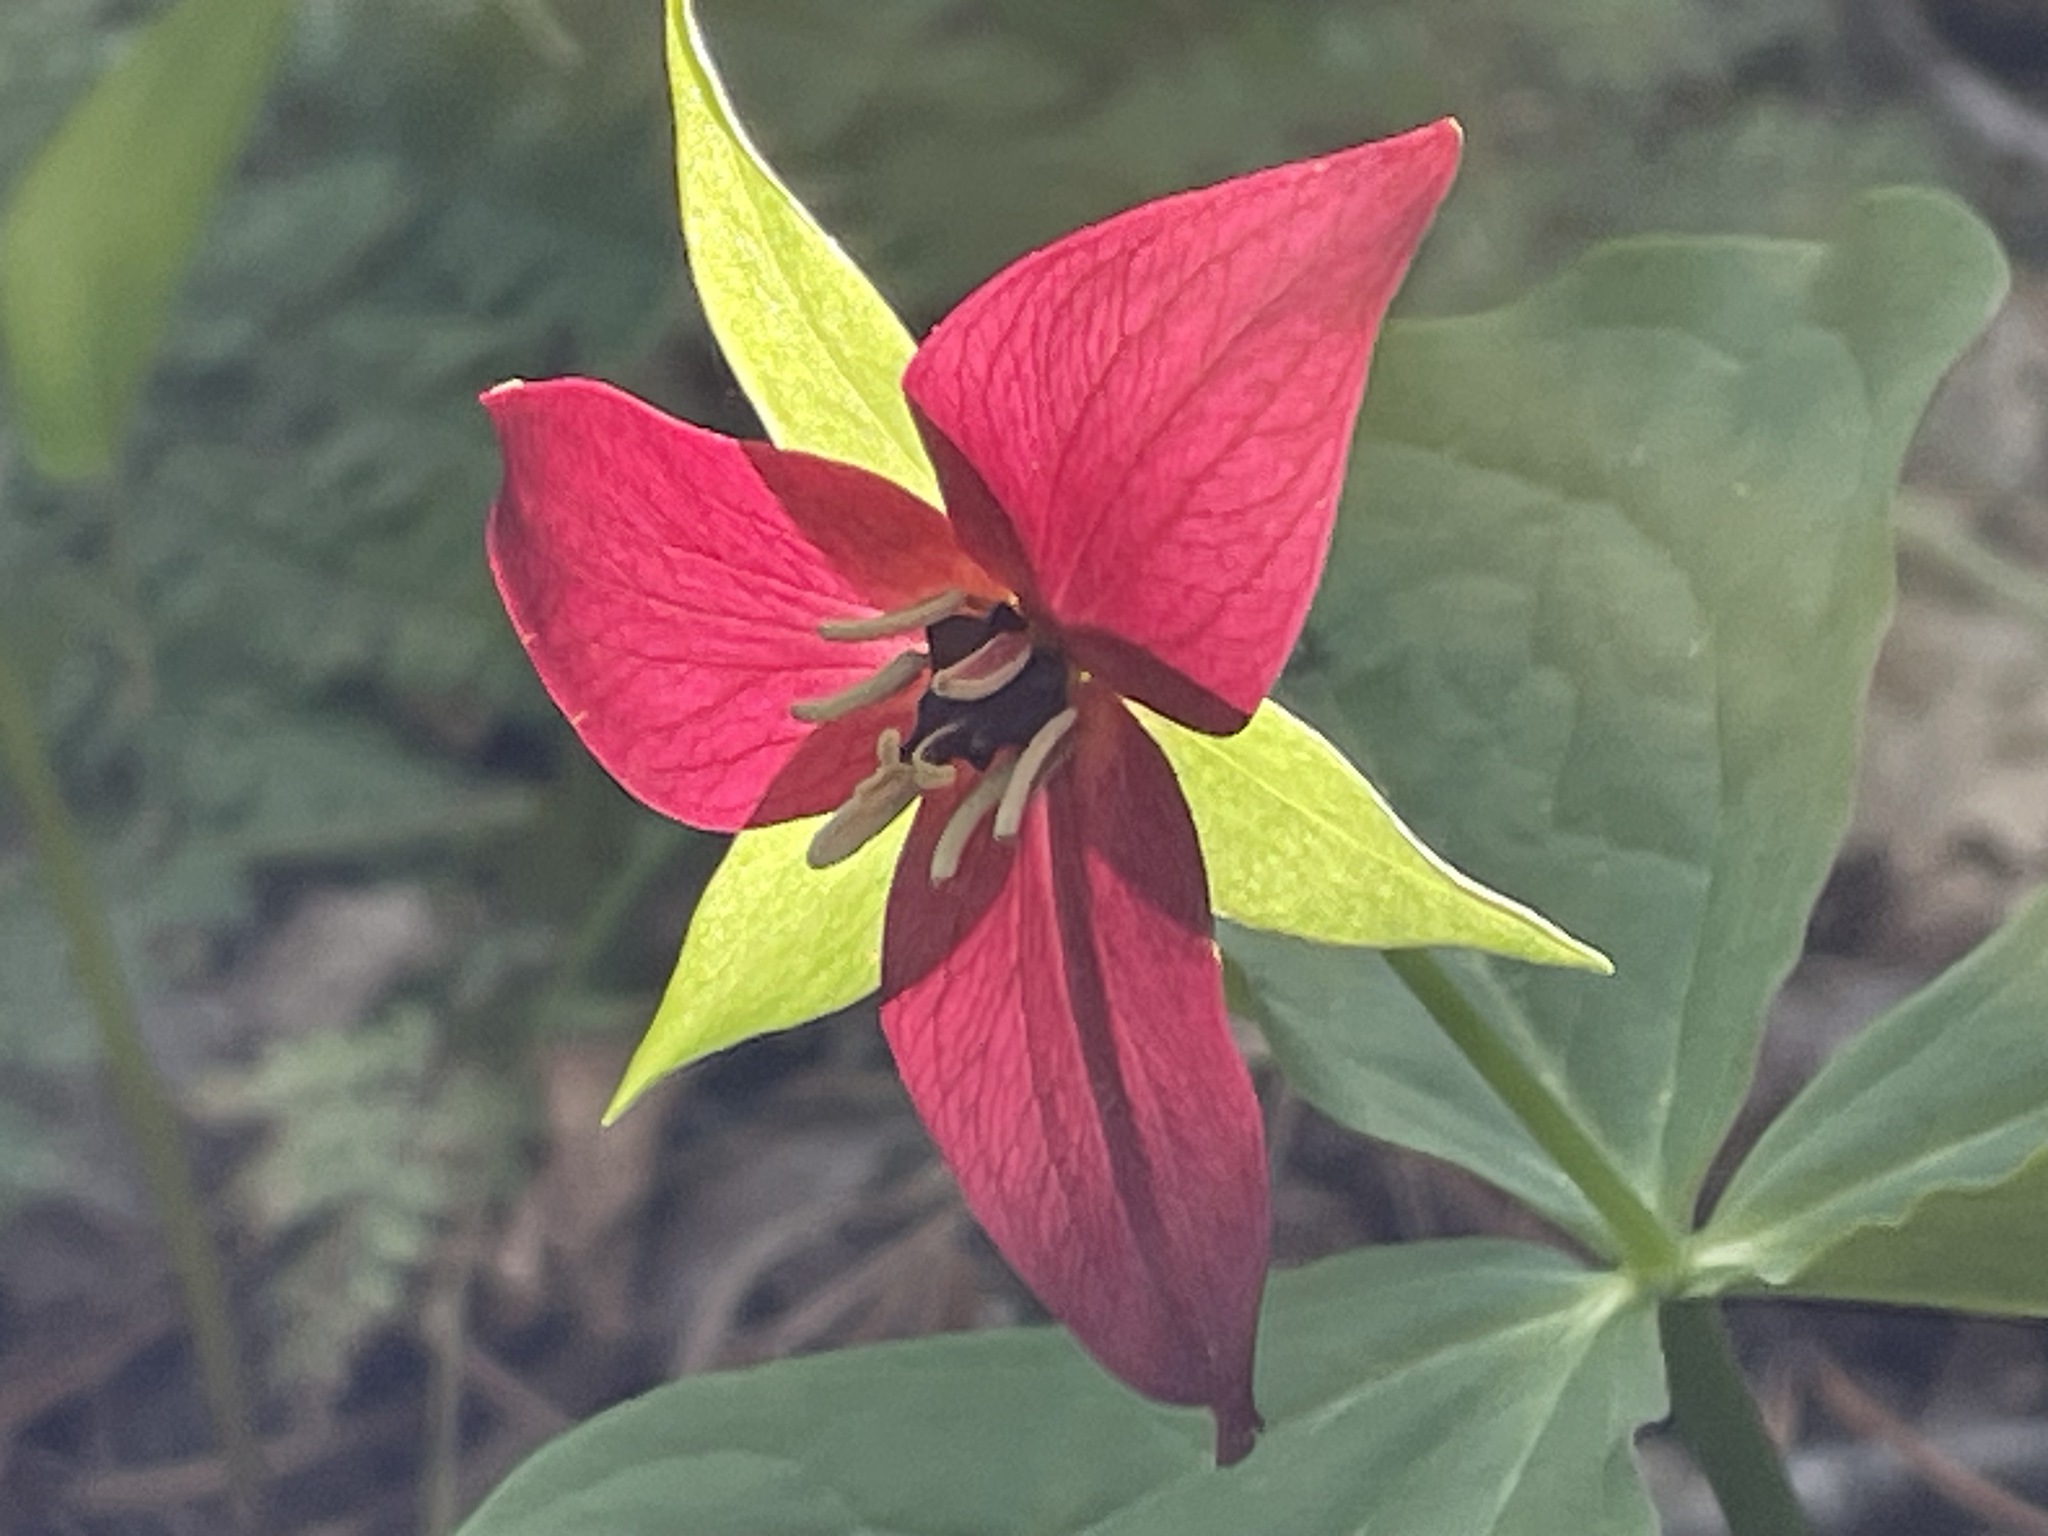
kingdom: Plantae
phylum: Tracheophyta
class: Liliopsida
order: Liliales
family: Melanthiaceae
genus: Trillium
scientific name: Trillium erectum
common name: Purple trillium
